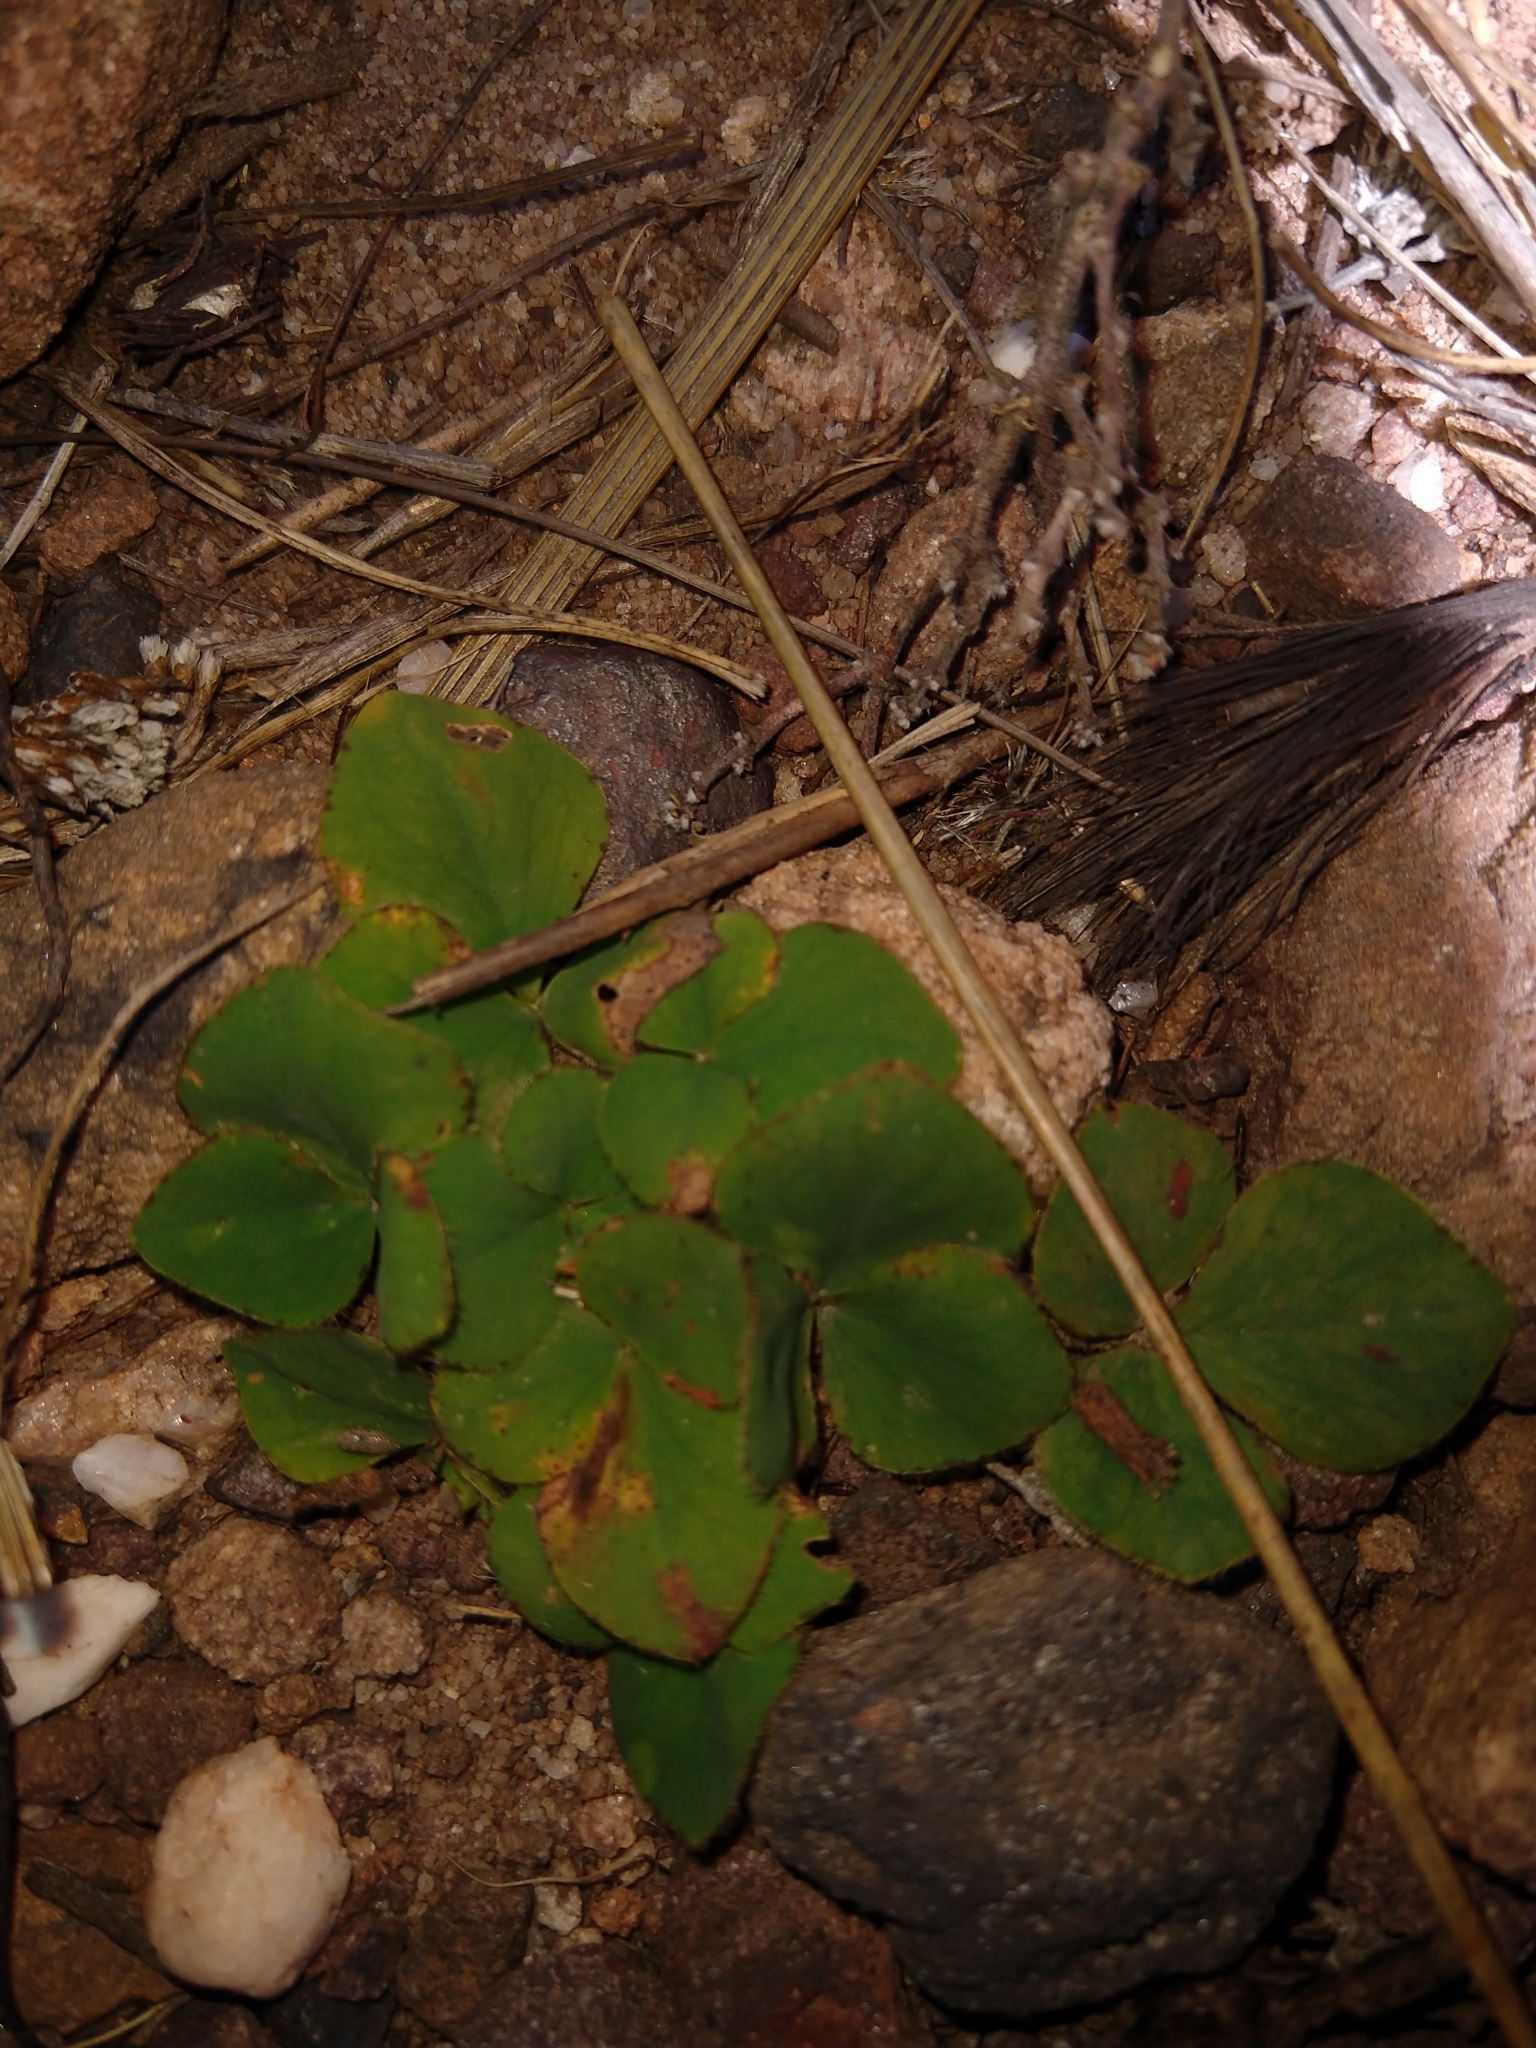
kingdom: Plantae
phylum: Tracheophyta
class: Magnoliopsida
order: Oxalidales
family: Oxalidaceae
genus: Oxalis
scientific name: Oxalis purpurea
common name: Purple woodsorrel
